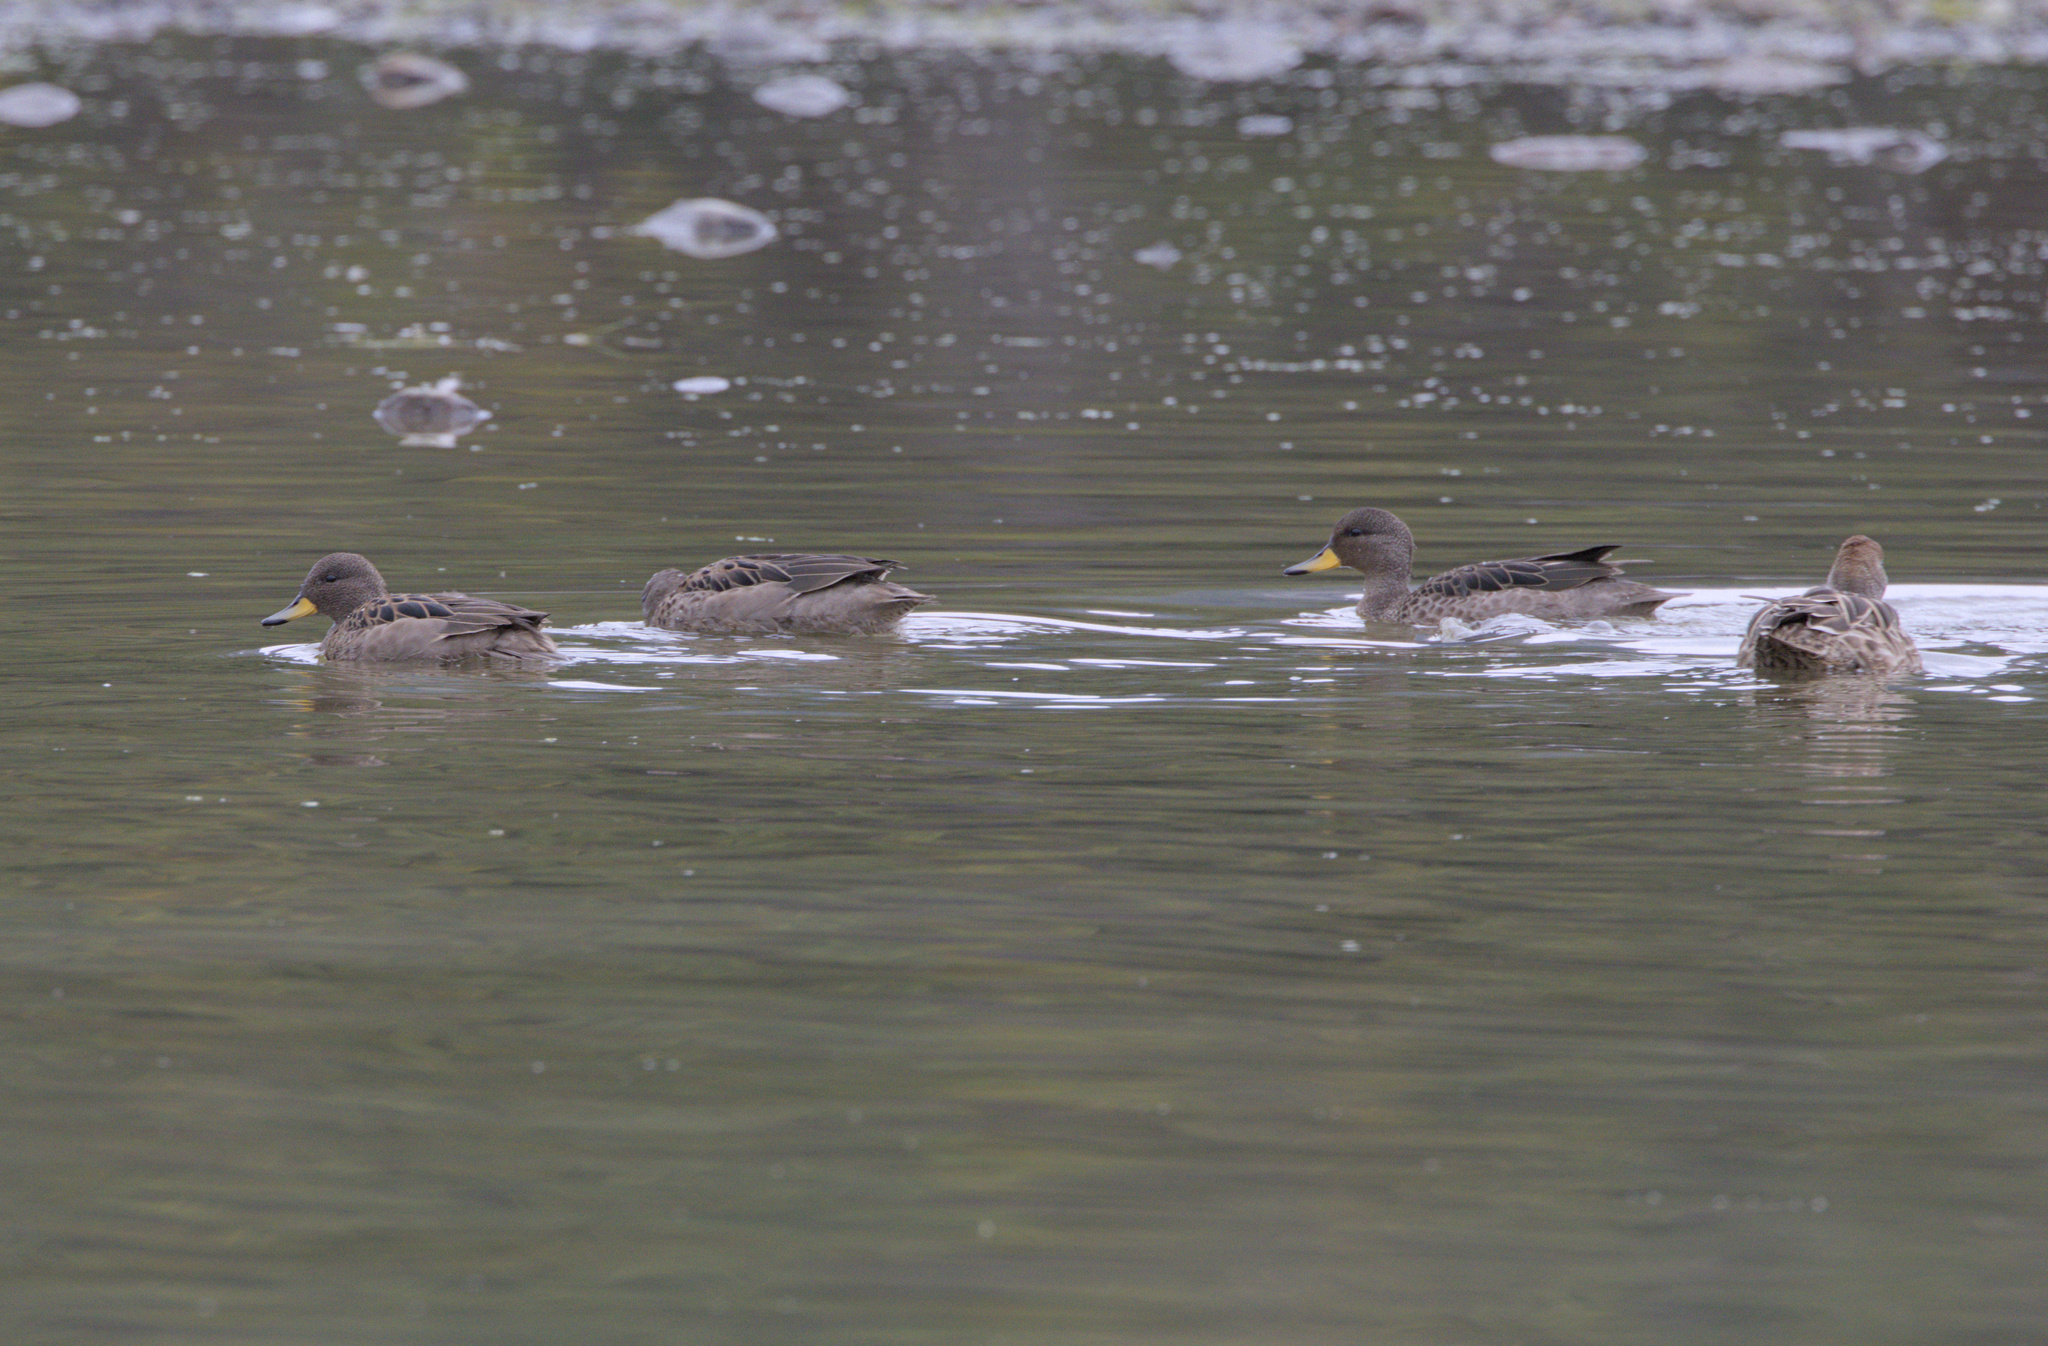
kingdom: Animalia
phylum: Chordata
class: Aves
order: Anseriformes
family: Anatidae
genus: Anas
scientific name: Anas flavirostris
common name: Yellow-billed teal
